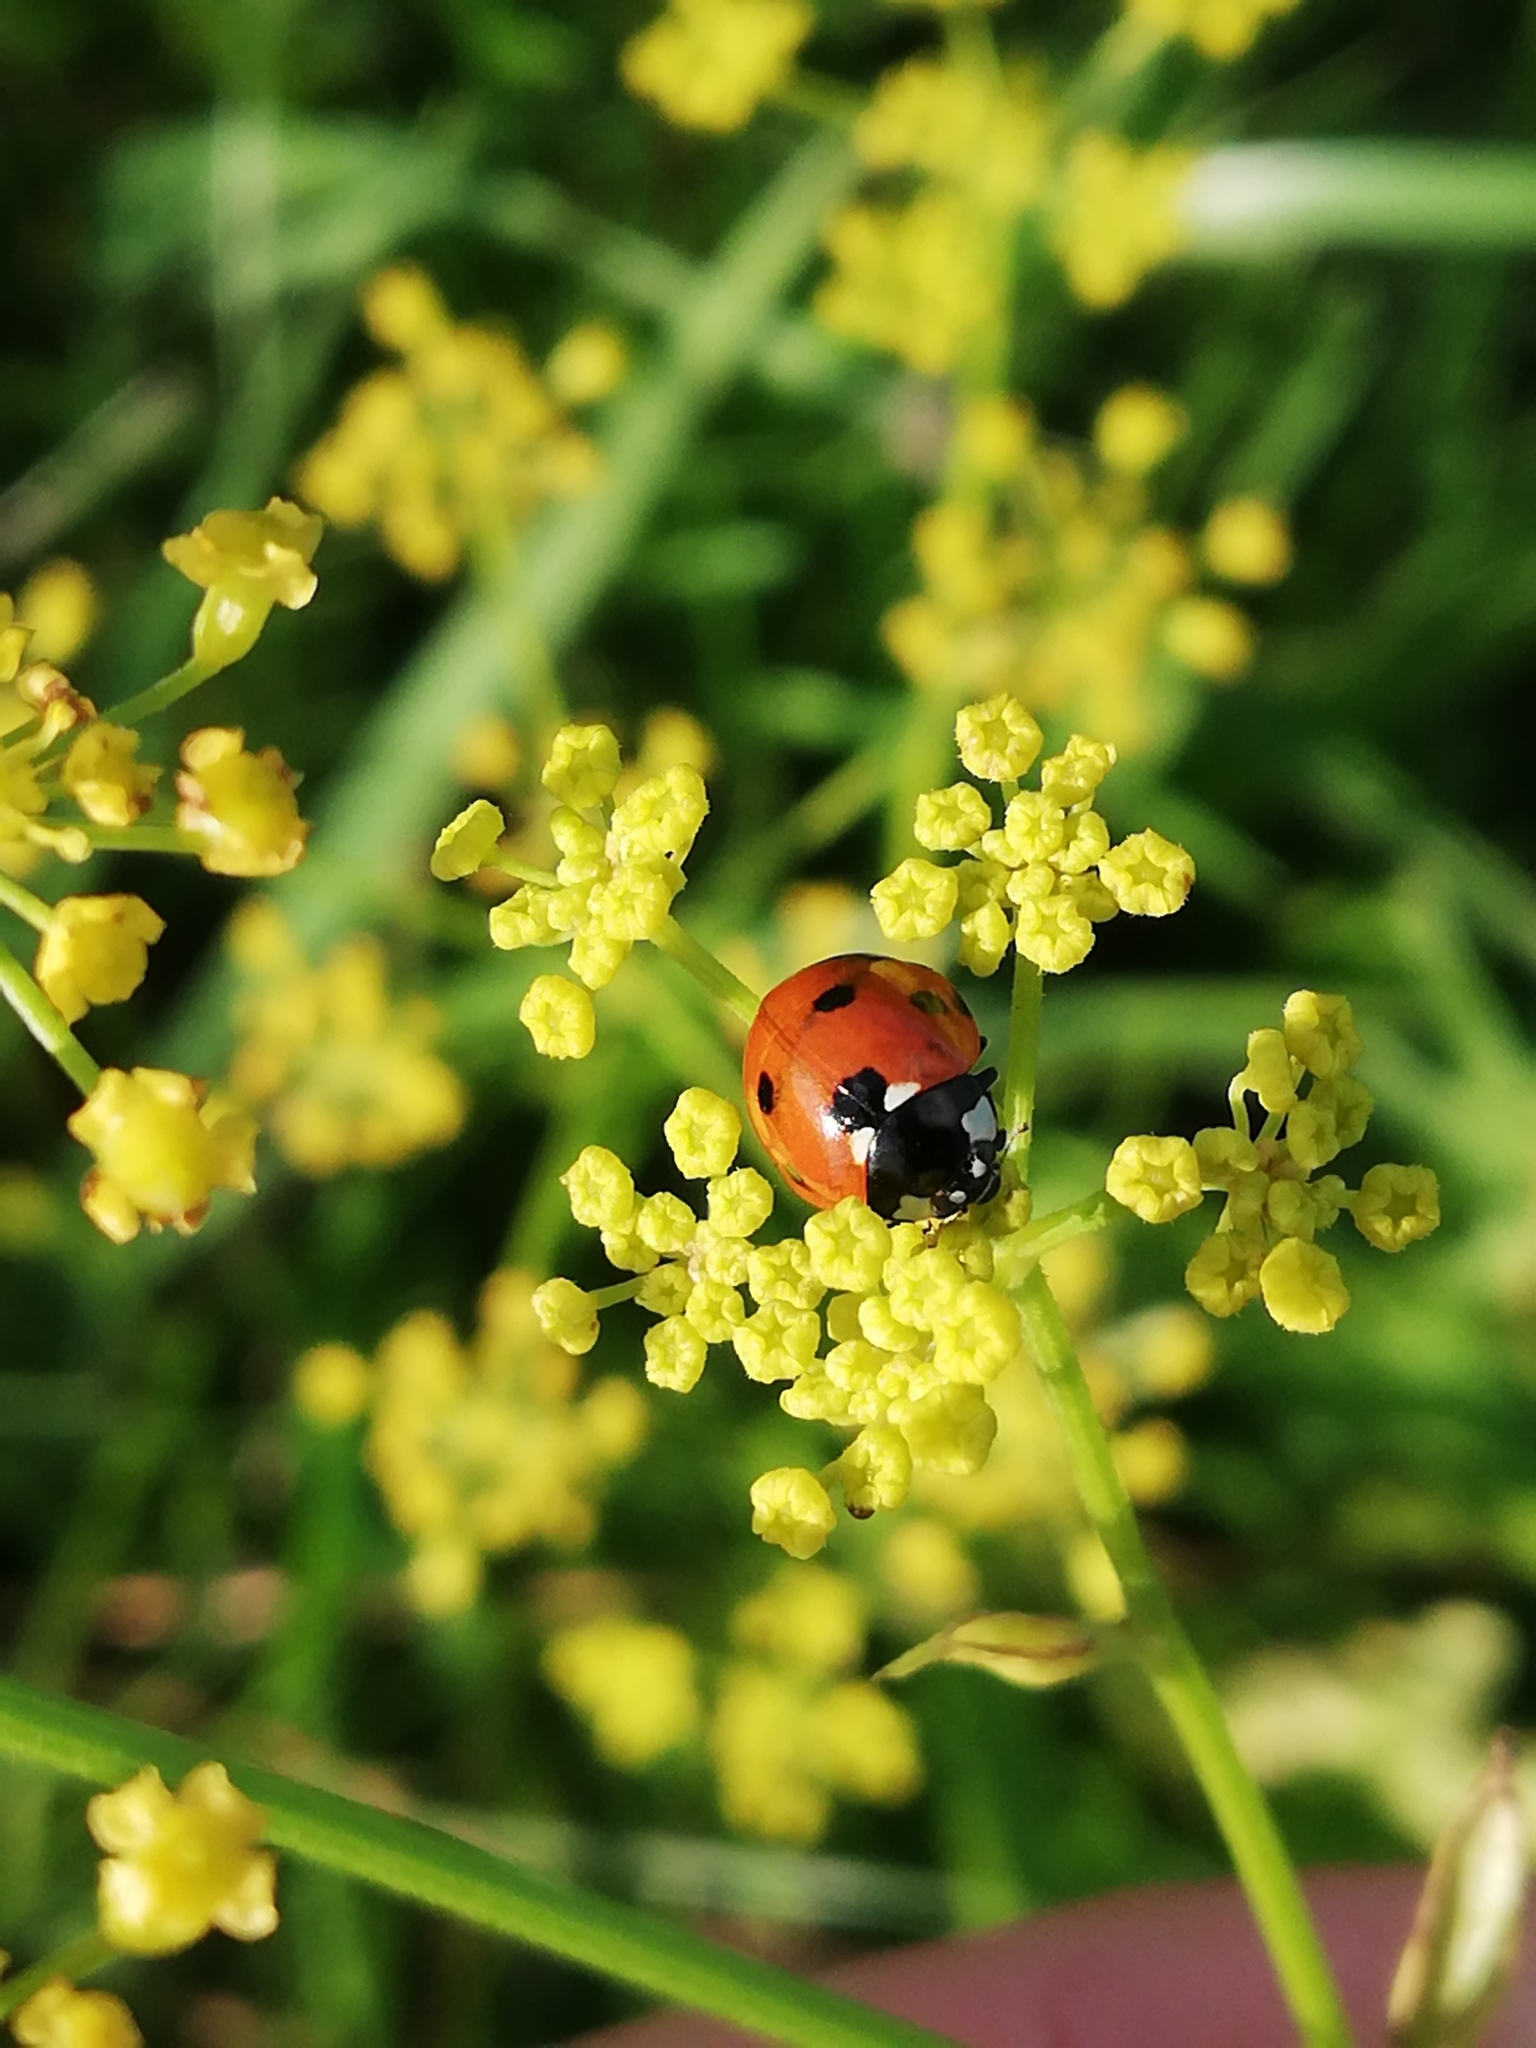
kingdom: Animalia
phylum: Arthropoda
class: Insecta
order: Coleoptera
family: Coccinellidae
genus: Coccinella
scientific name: Coccinella septempunctata
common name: Sevenspotted lady beetle
